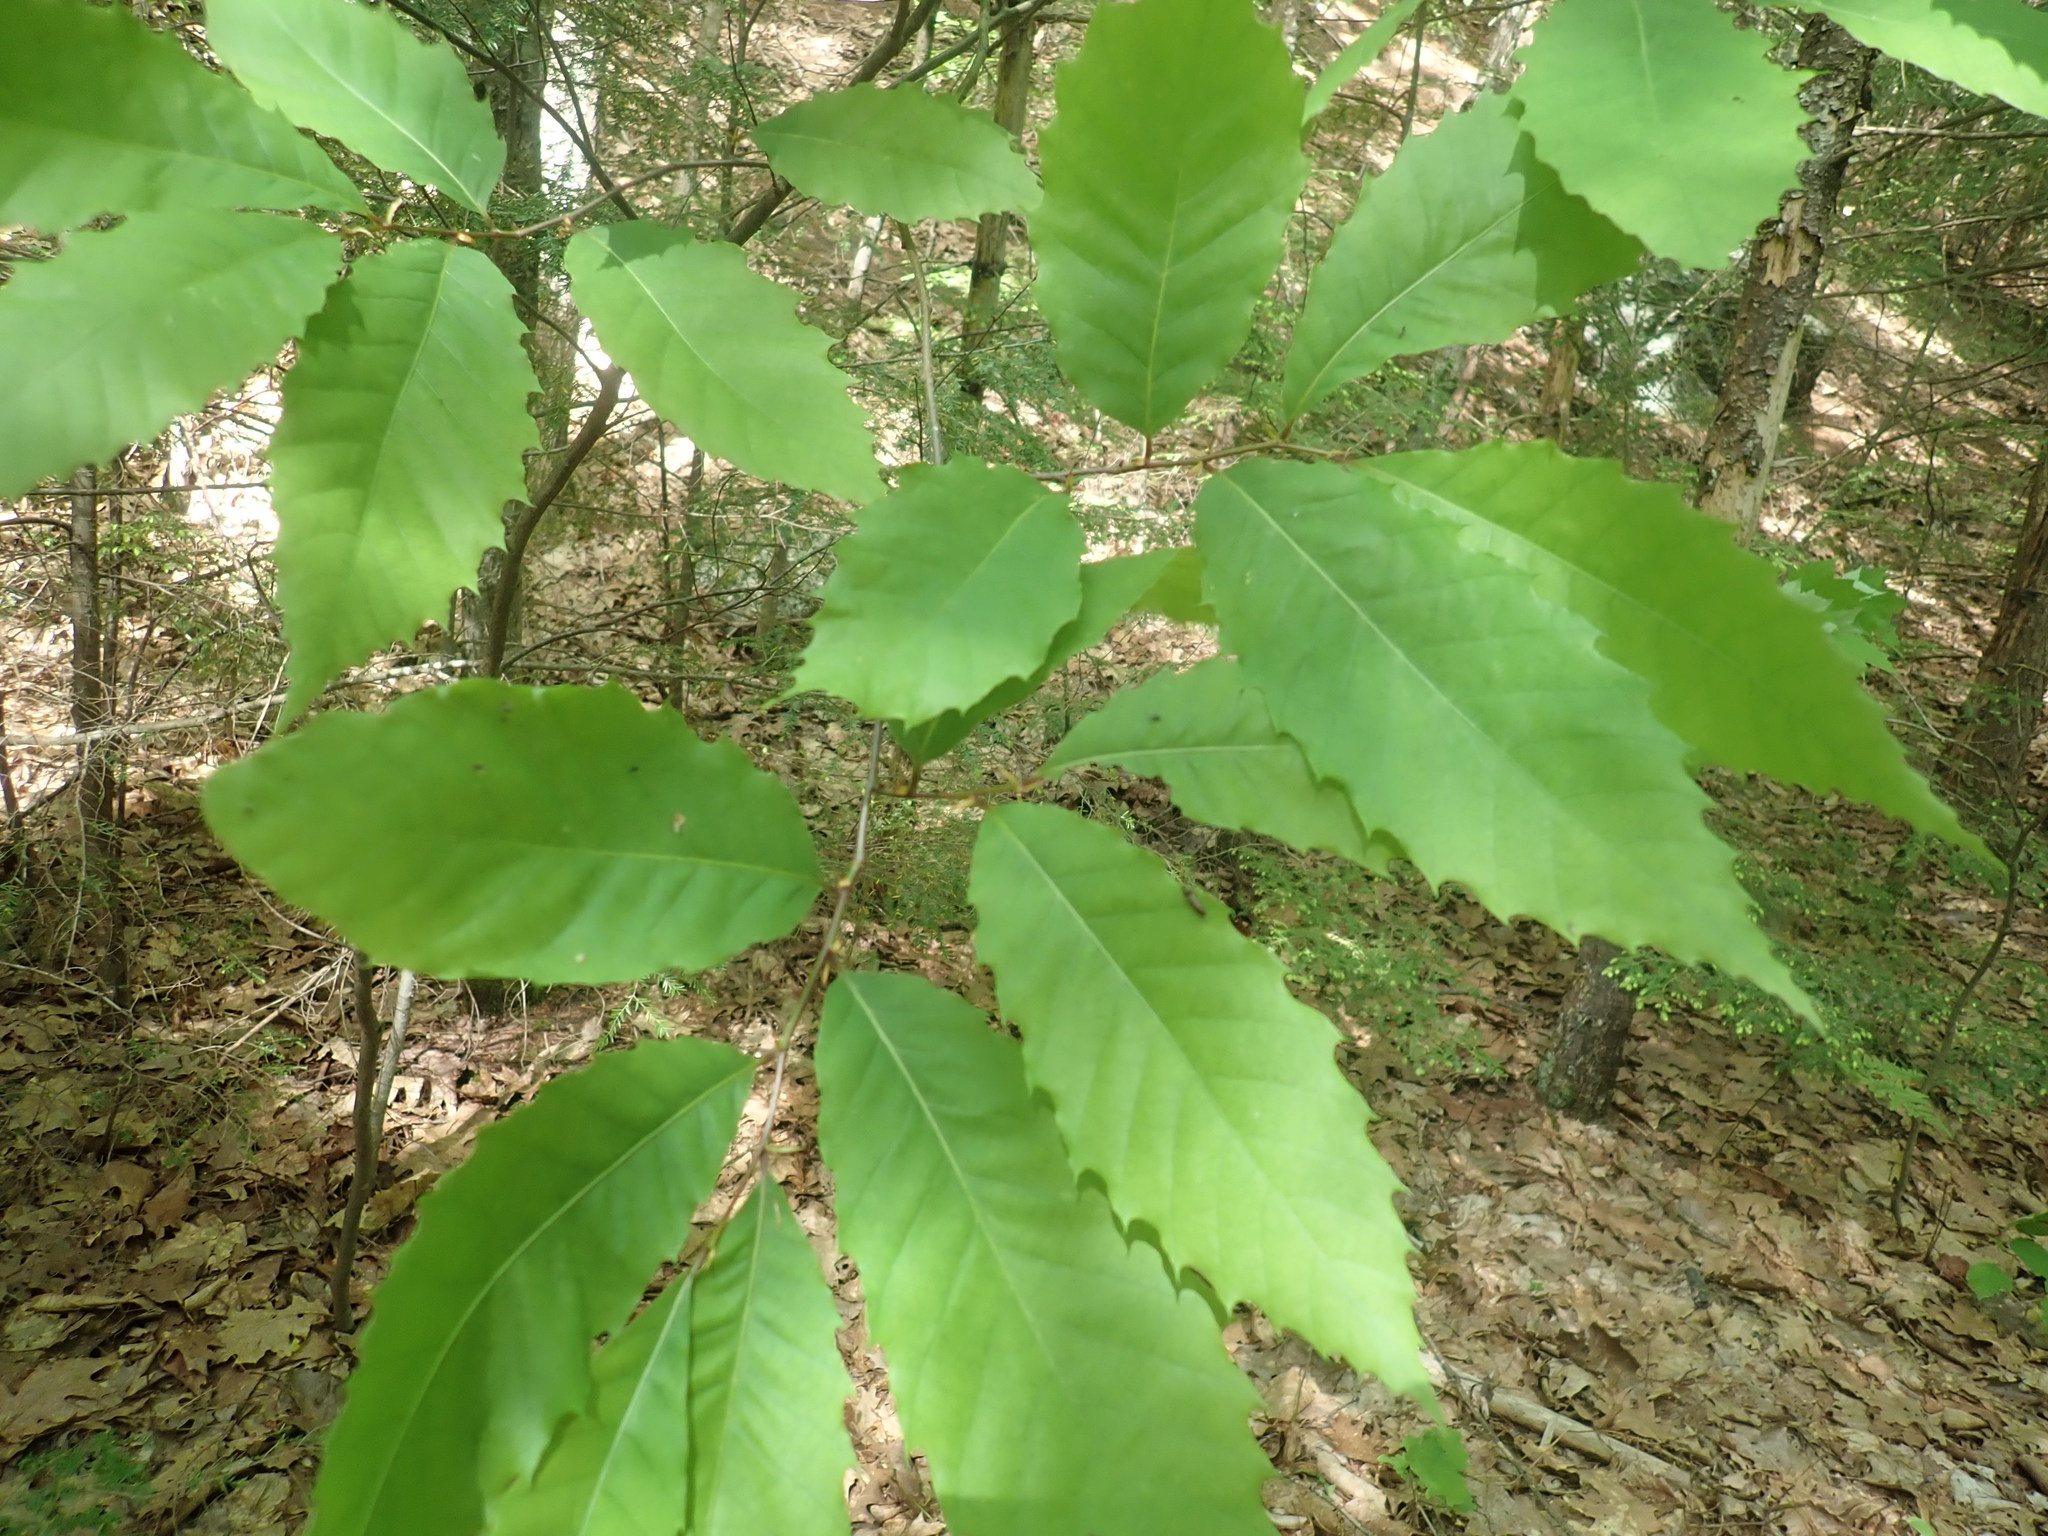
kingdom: Plantae
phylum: Tracheophyta
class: Magnoliopsida
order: Fagales
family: Fagaceae
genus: Castanea
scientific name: Castanea dentata
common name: American chestnut
